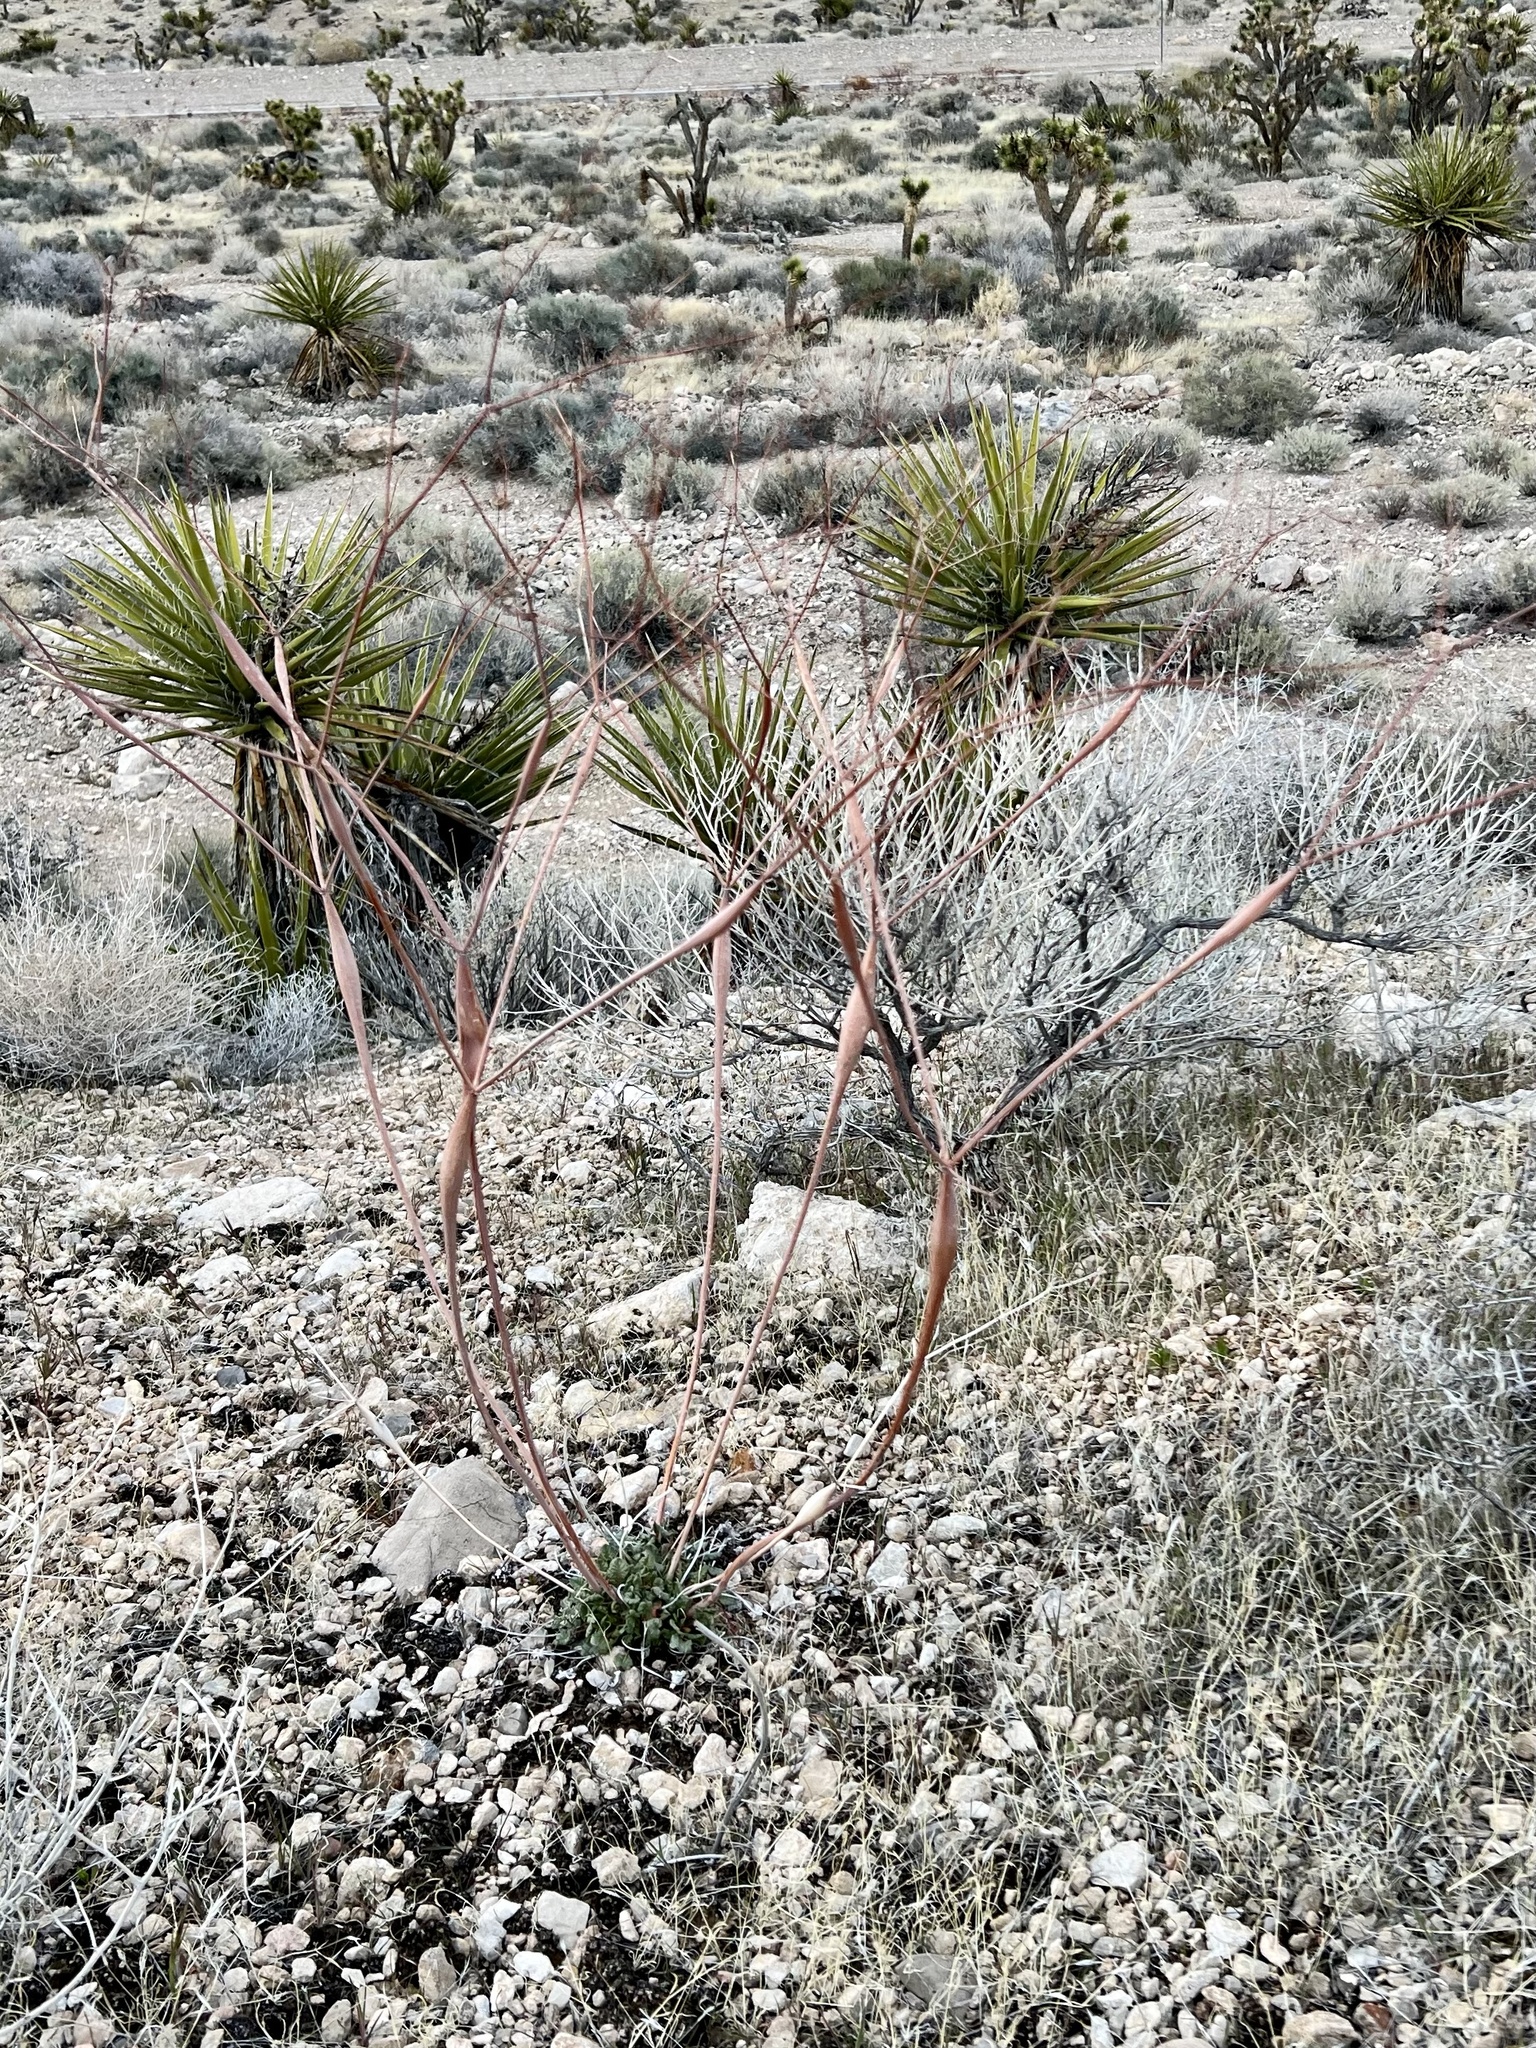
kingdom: Plantae
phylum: Tracheophyta
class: Magnoliopsida
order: Caryophyllales
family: Polygonaceae
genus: Eriogonum
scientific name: Eriogonum inflatum
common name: Desert trumpet
